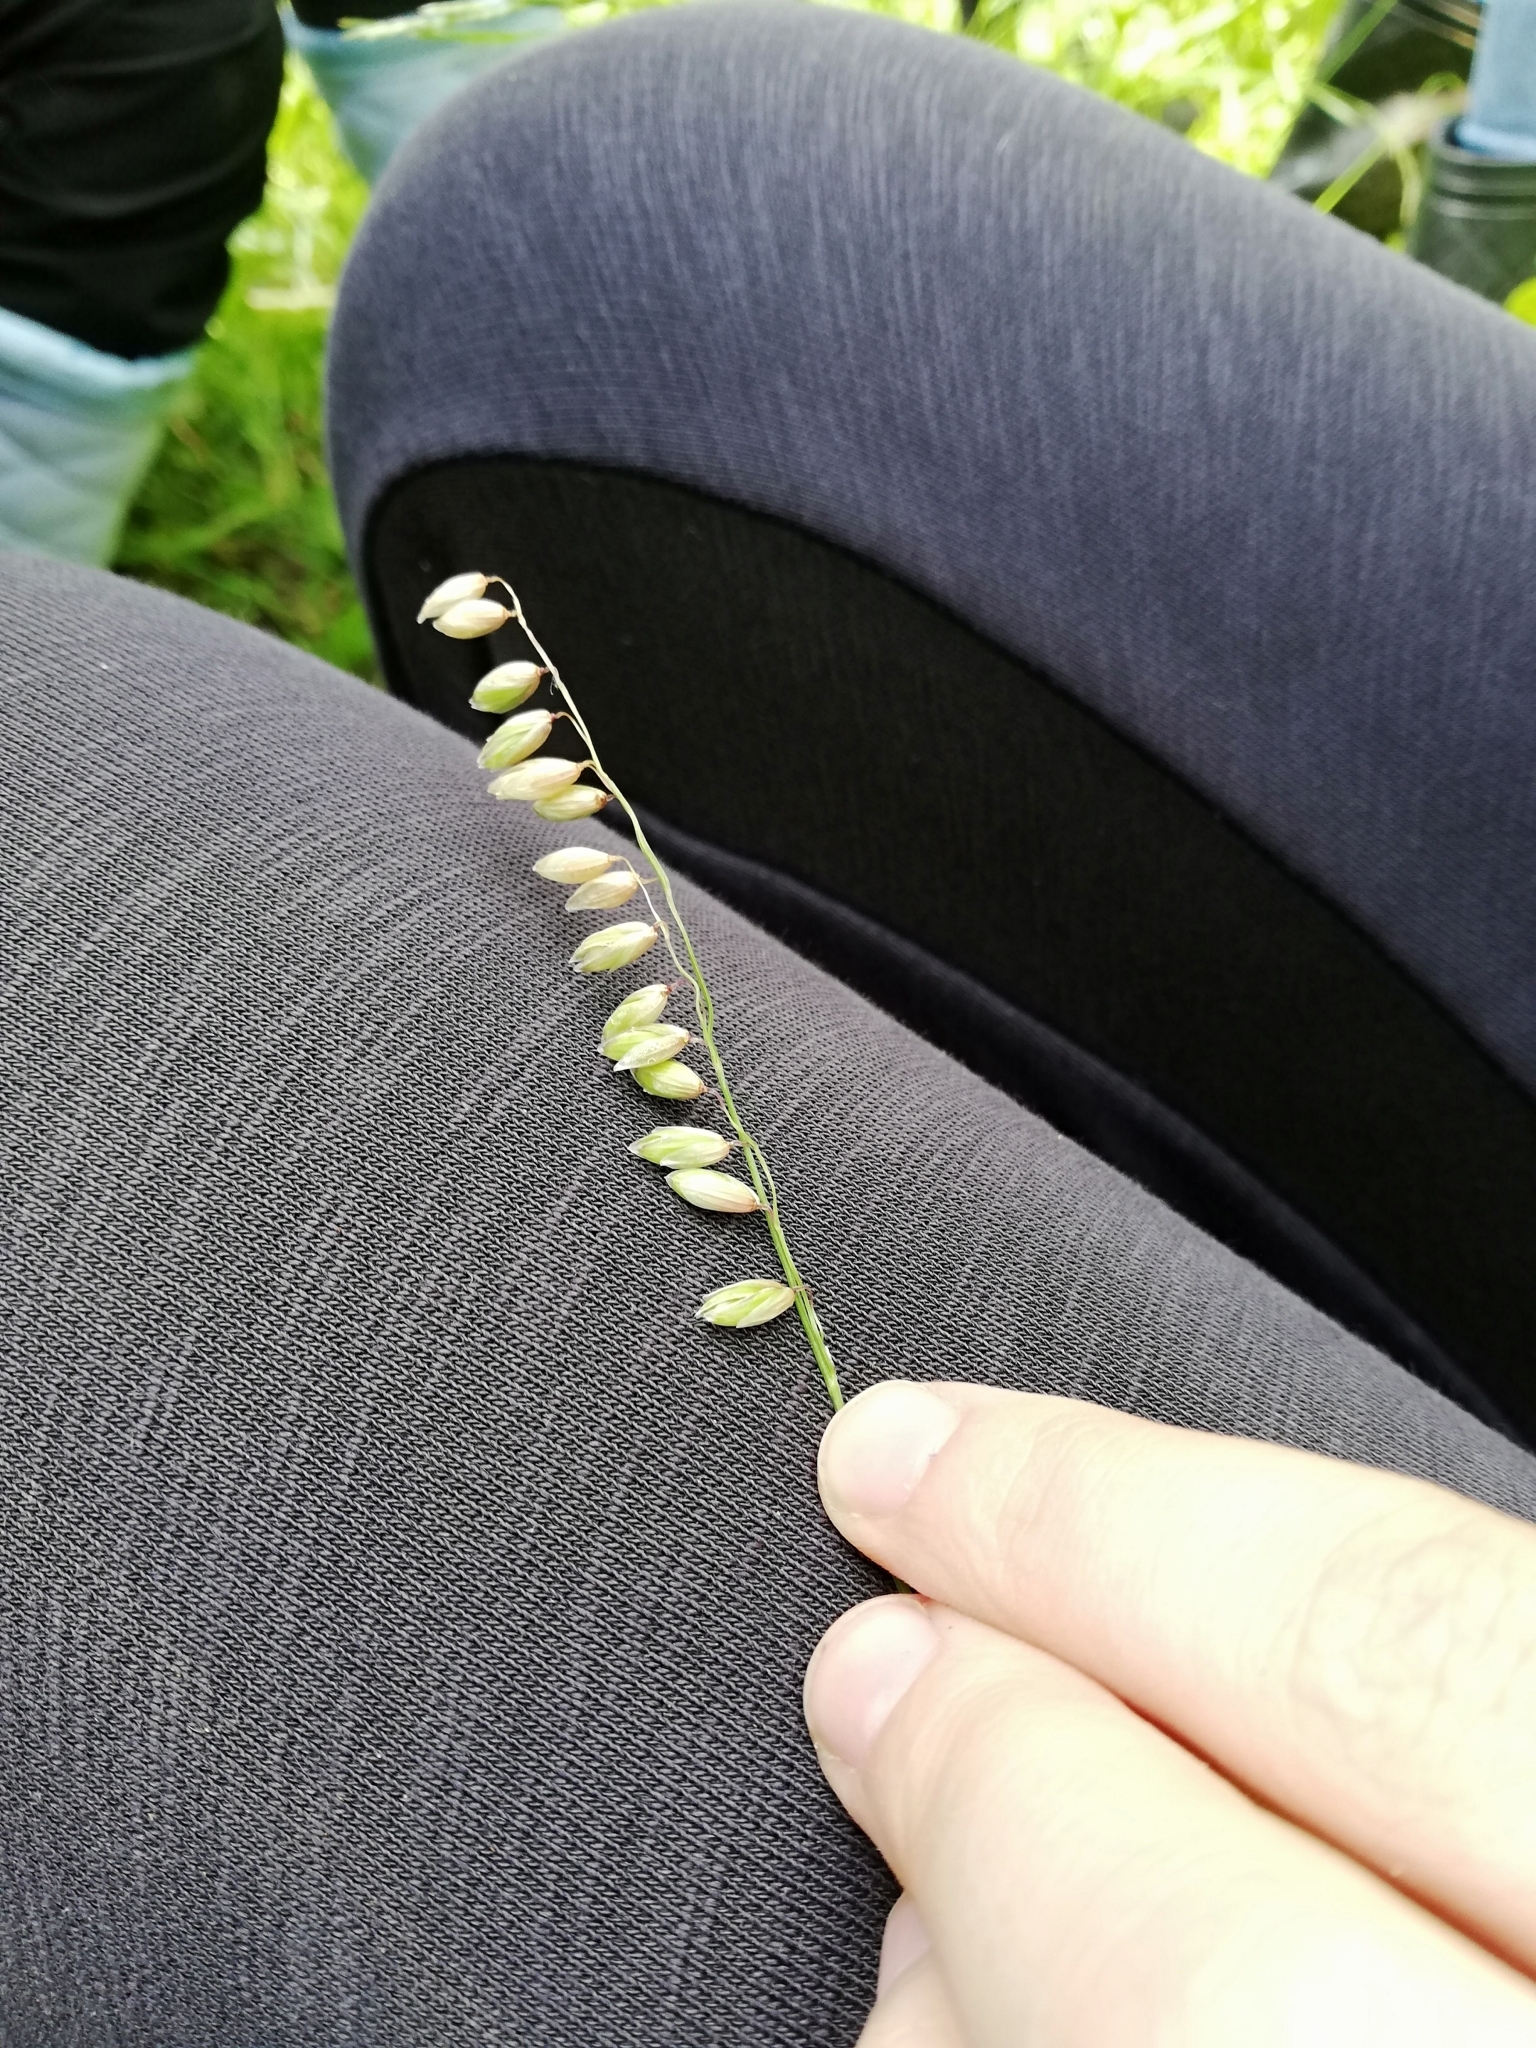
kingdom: Plantae
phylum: Tracheophyta
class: Liliopsida
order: Poales
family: Poaceae
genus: Melica
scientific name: Melica nutans
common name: Mountain melick
